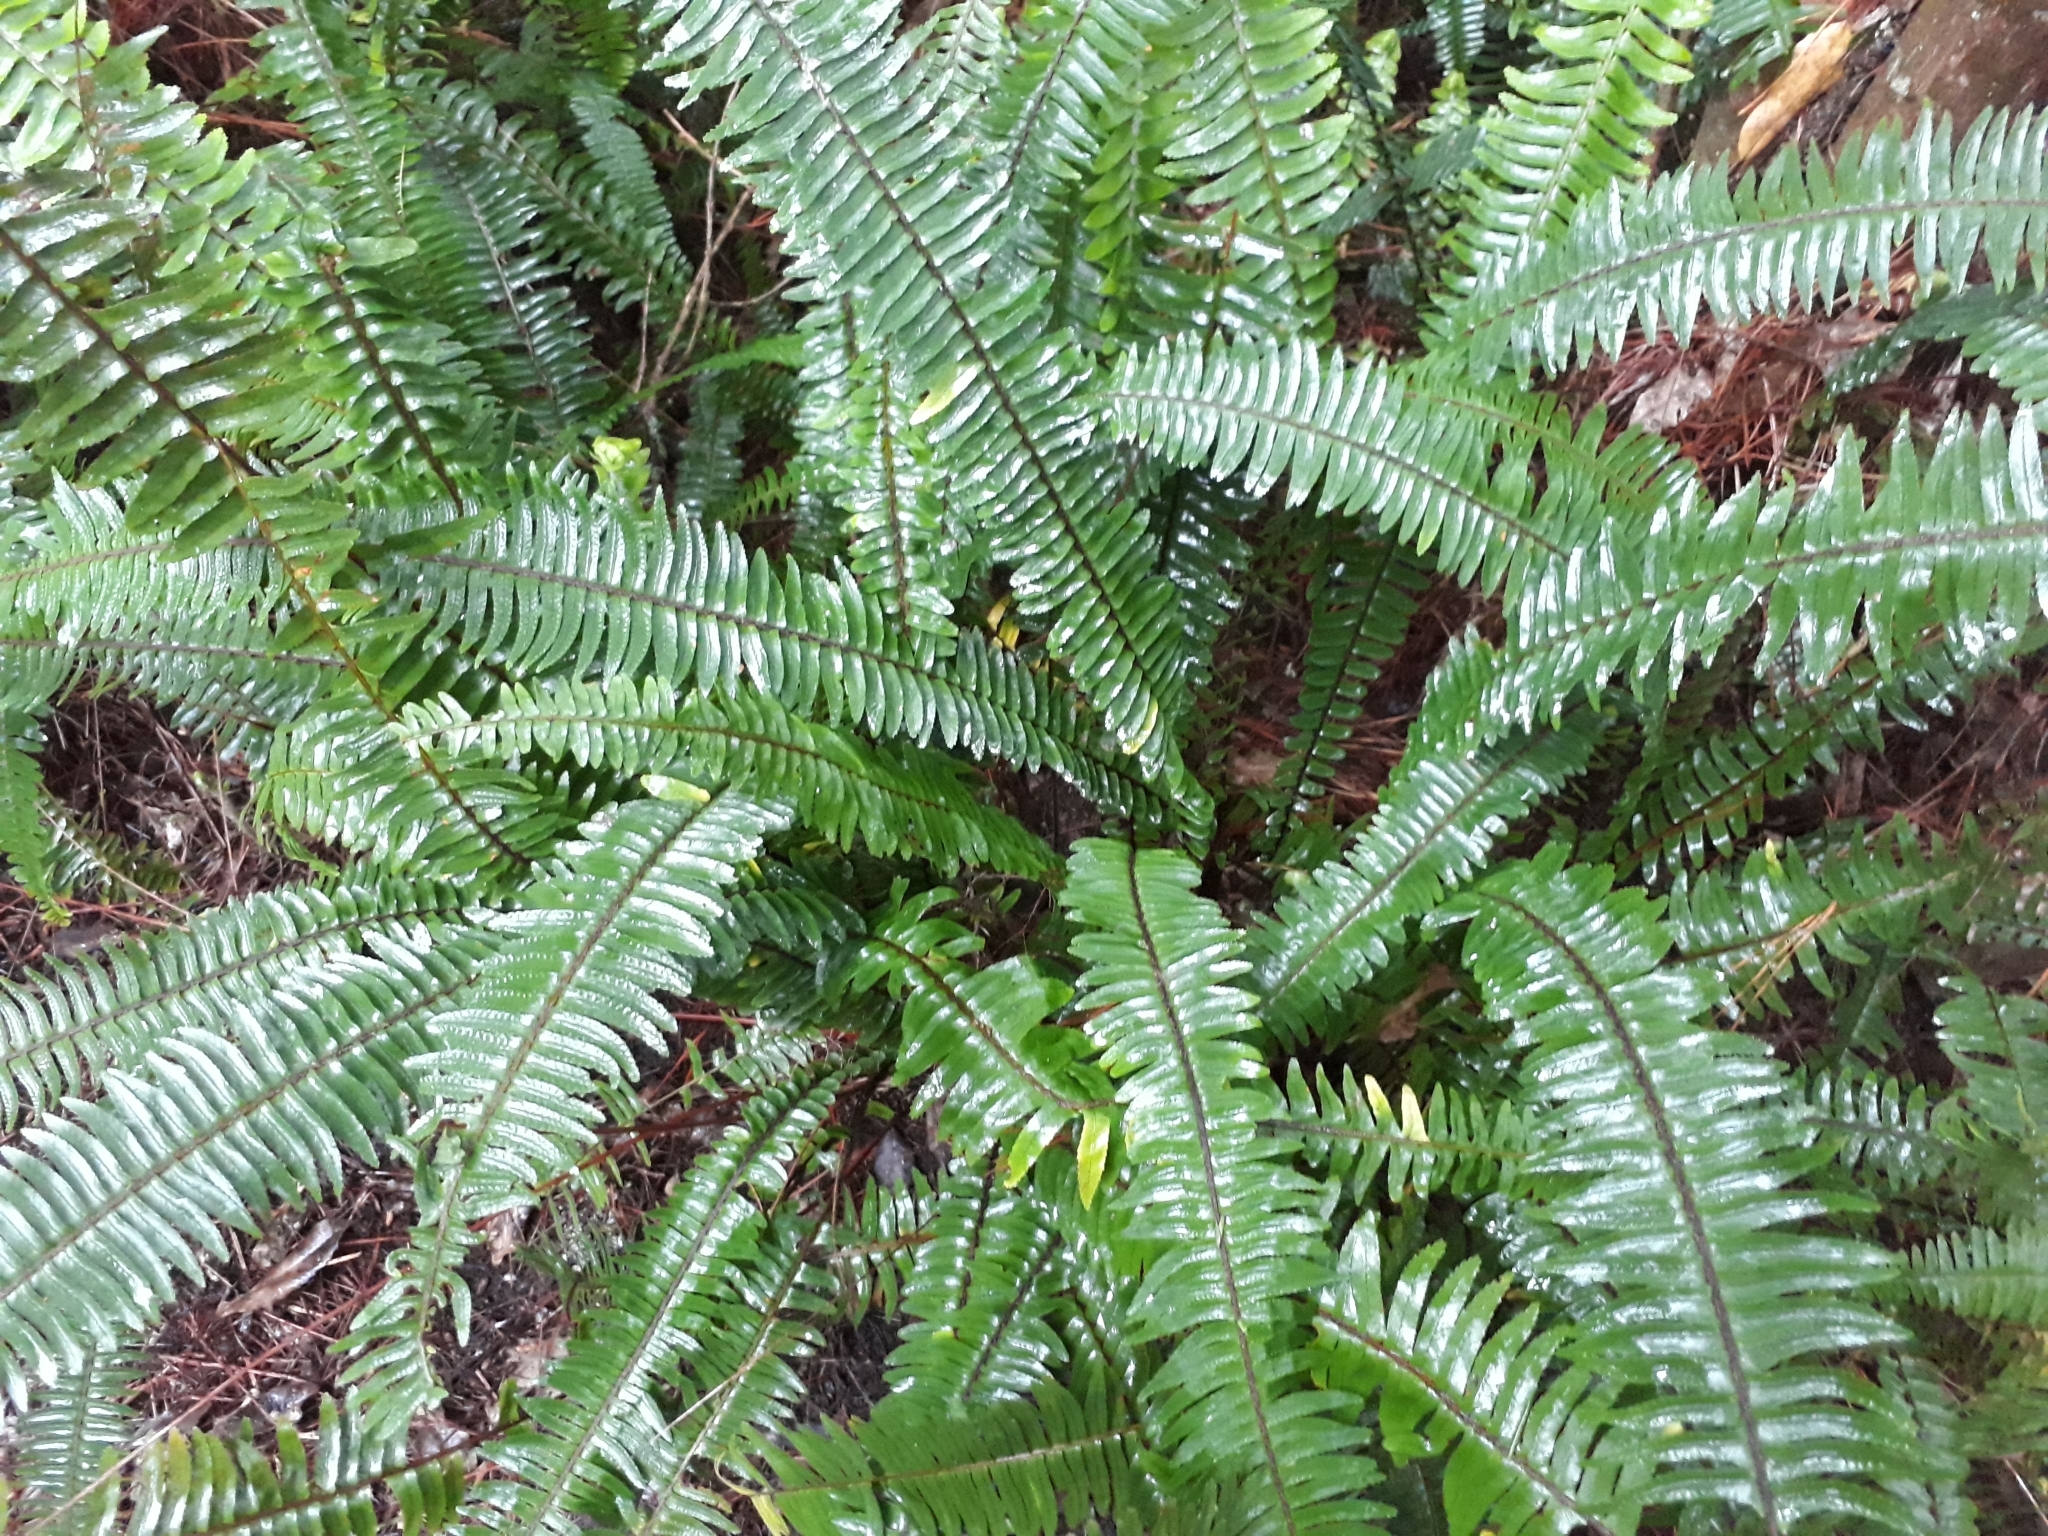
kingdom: Plantae
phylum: Tracheophyta
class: Polypodiopsida
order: Polypodiales
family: Nephrolepidaceae
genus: Nephrolepis
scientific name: Nephrolepis cordifolia
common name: Narrow swordfern
